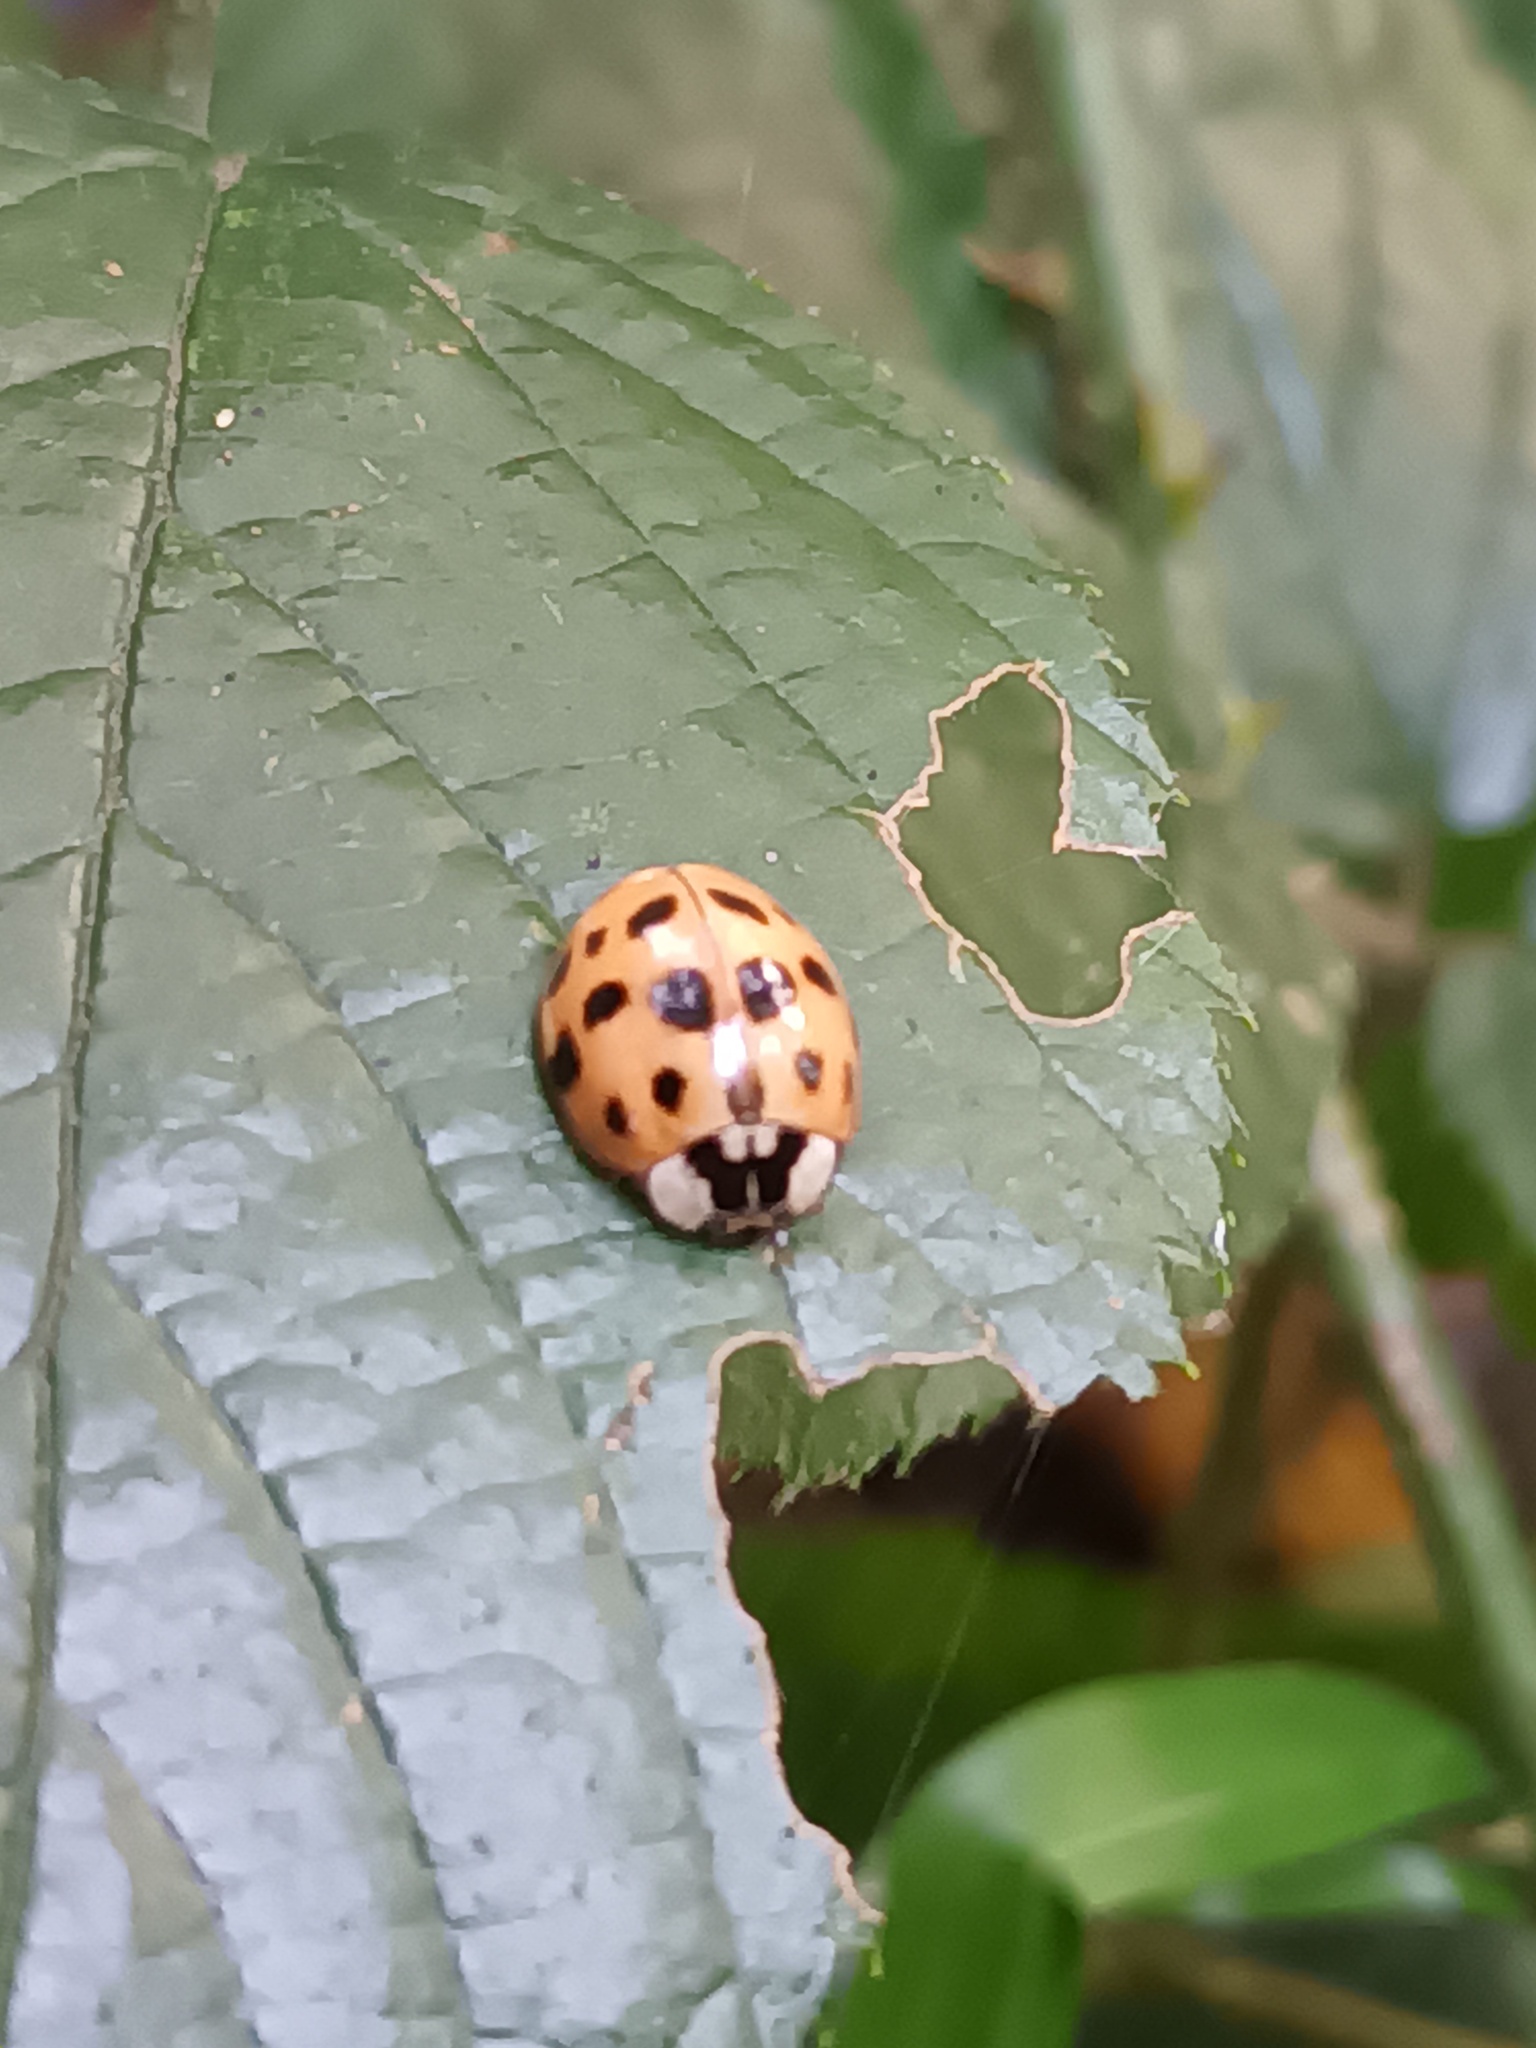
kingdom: Animalia
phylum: Arthropoda
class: Insecta
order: Coleoptera
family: Coccinellidae
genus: Harmonia
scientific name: Harmonia axyridis
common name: Harlequin ladybird
